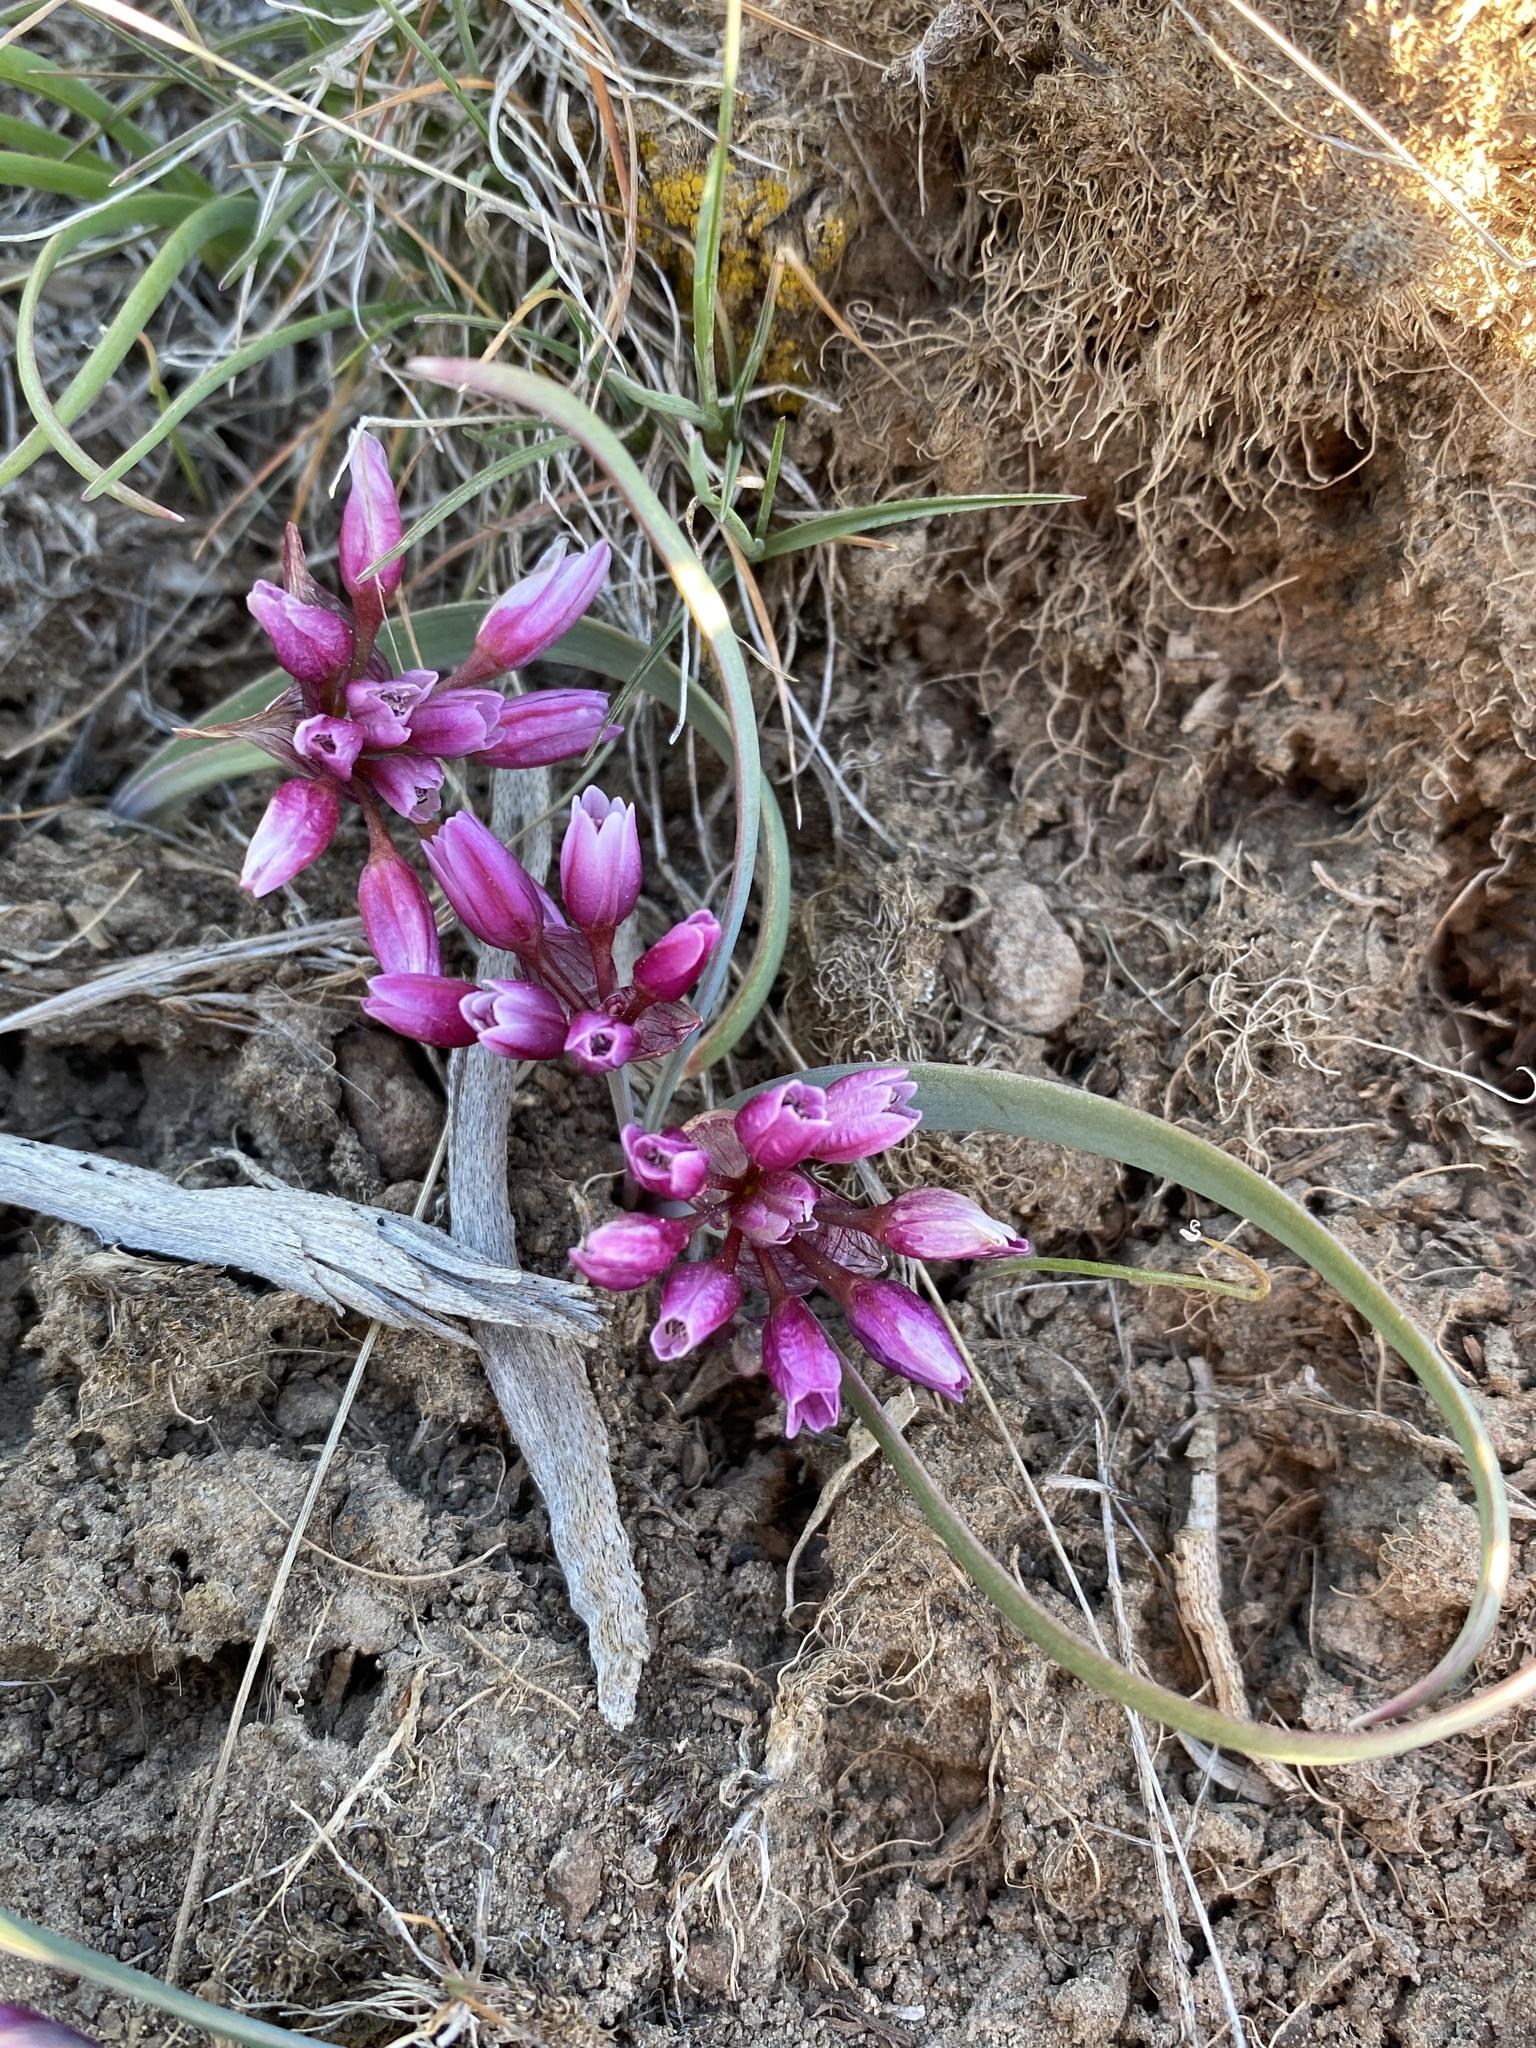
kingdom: Plantae
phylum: Tracheophyta
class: Liliopsida
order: Asparagales
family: Amaryllidaceae
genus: Allium
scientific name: Allium scilloides
